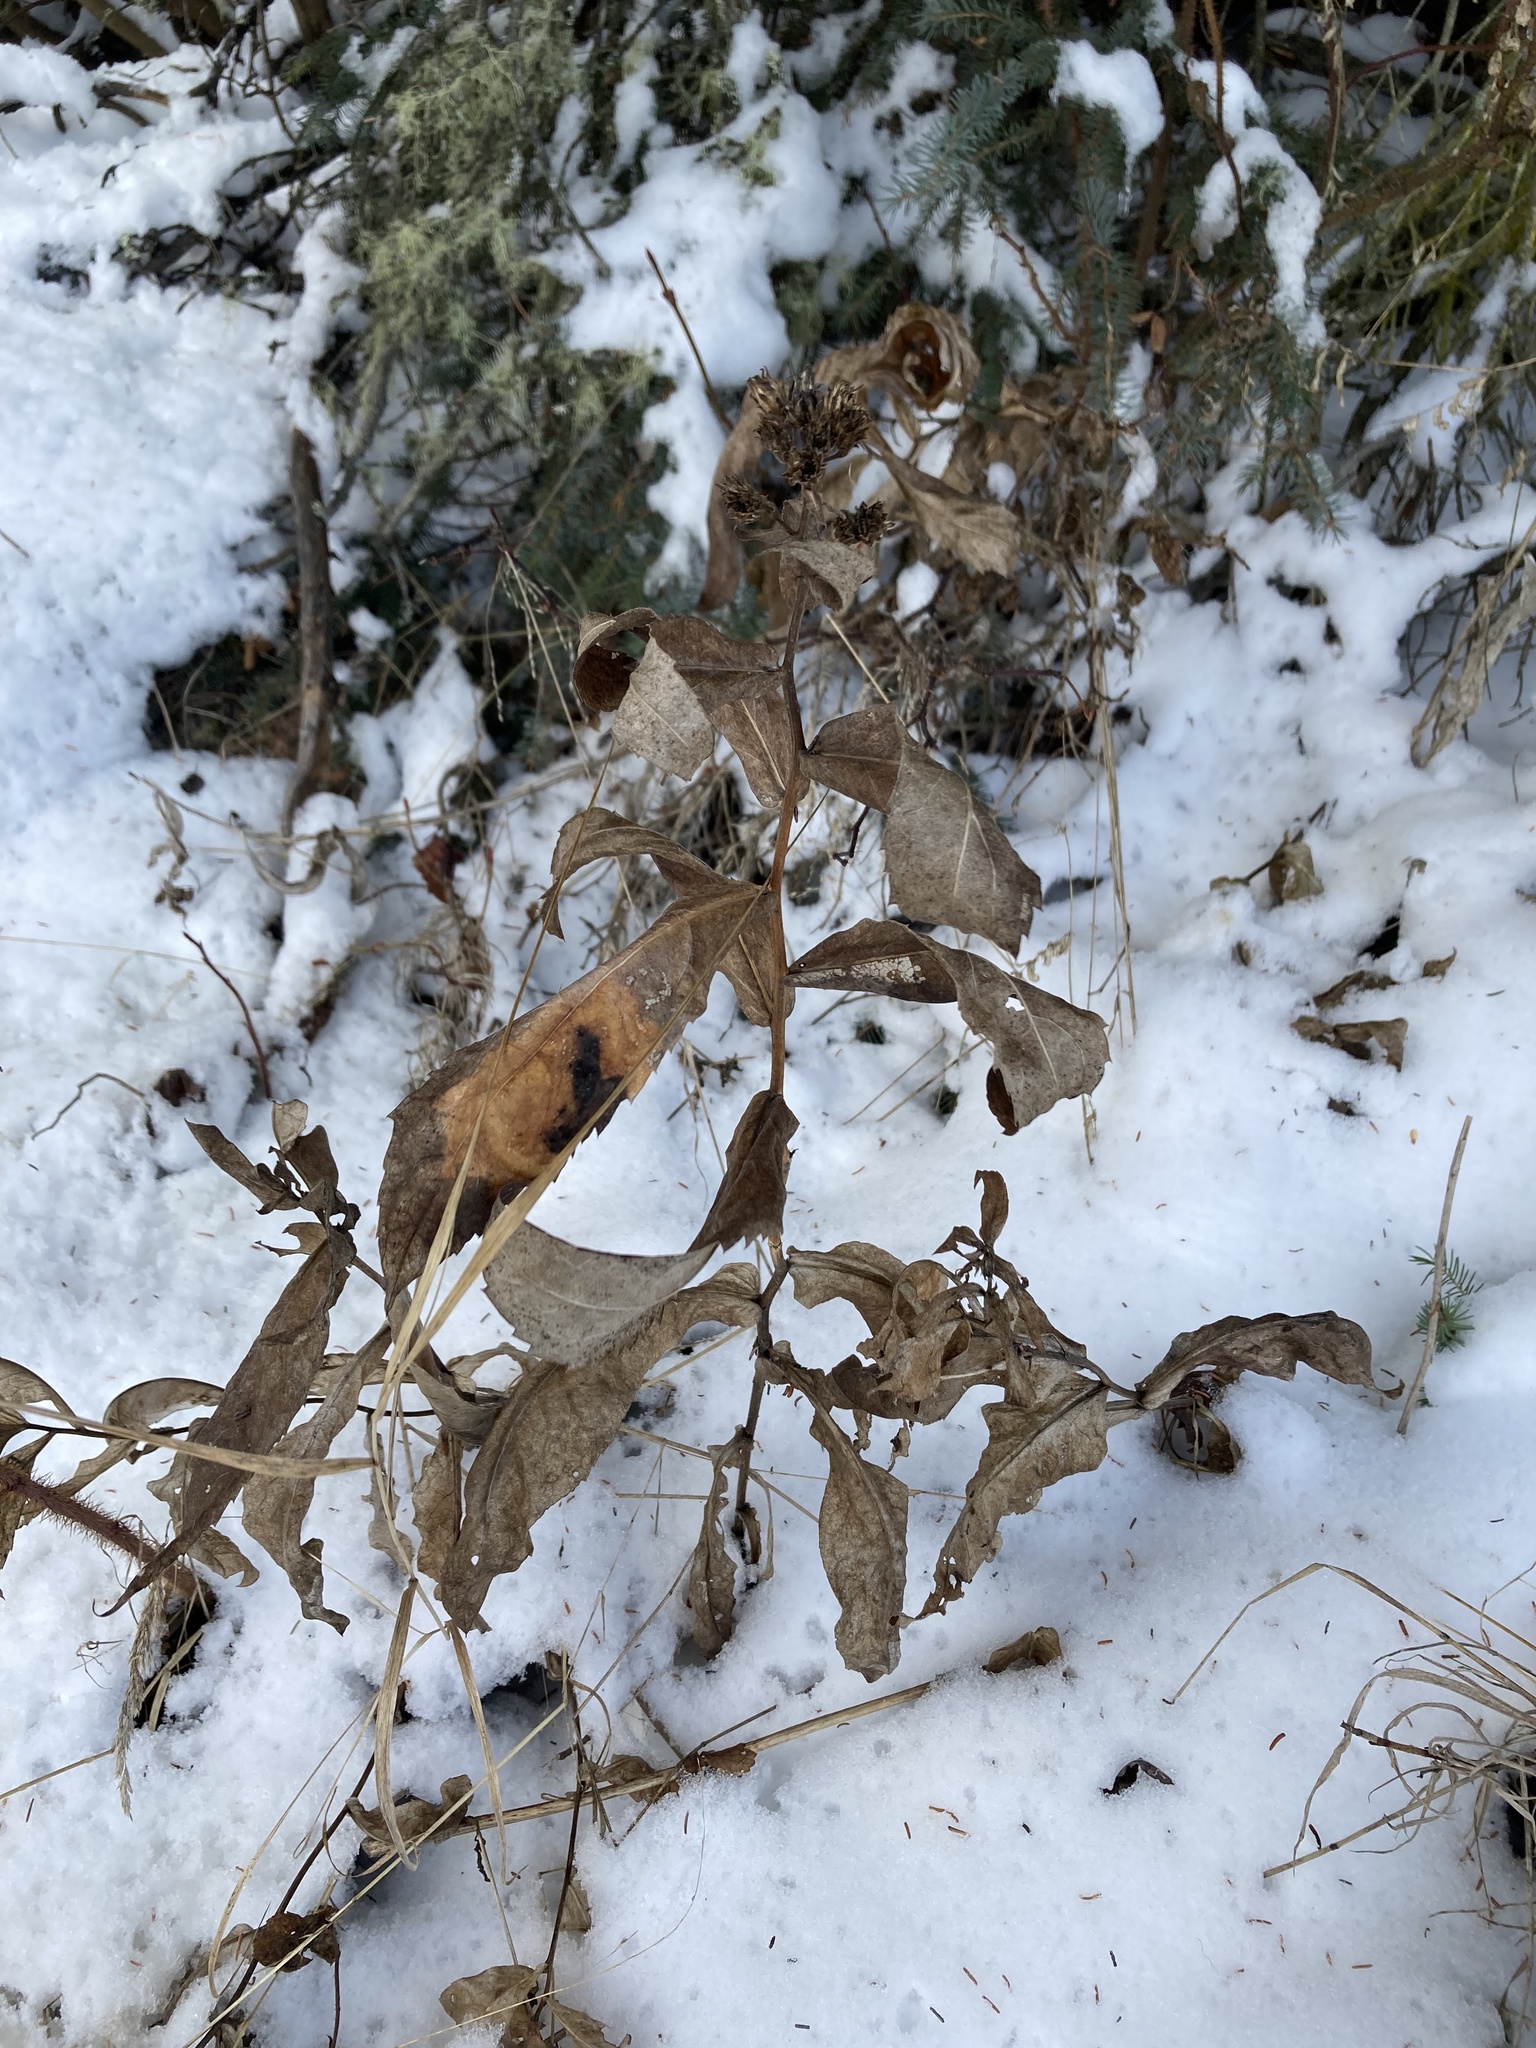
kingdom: Plantae
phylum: Tracheophyta
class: Magnoliopsida
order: Asterales
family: Asteraceae
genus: Eurybia
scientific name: Eurybia conspicua
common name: Showy aster
